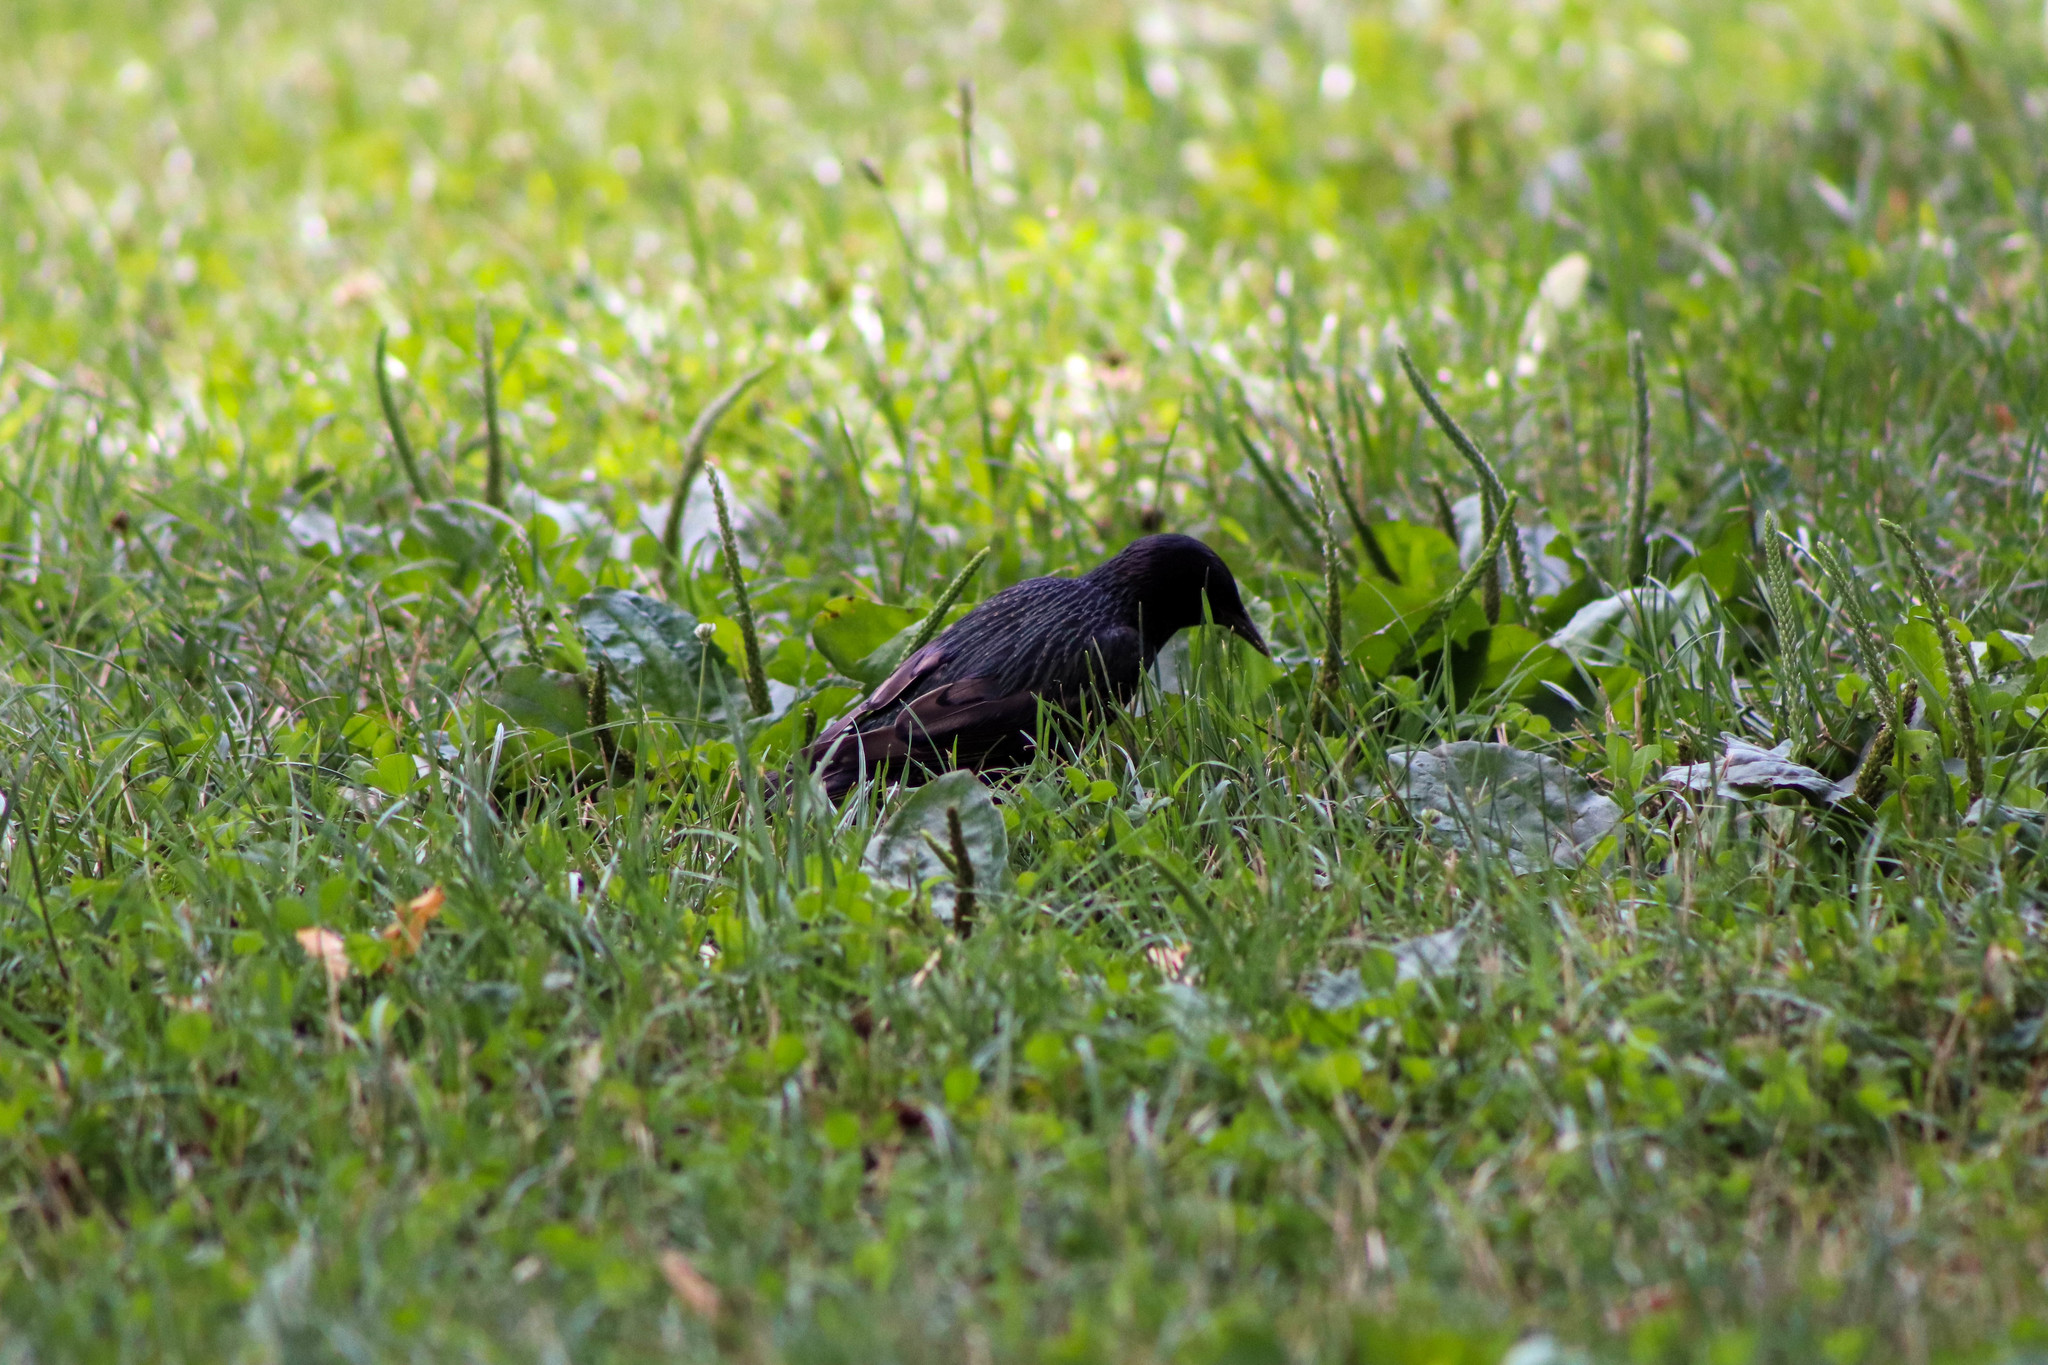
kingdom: Animalia
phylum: Chordata
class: Aves
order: Passeriformes
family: Sturnidae
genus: Sturnus
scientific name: Sturnus vulgaris
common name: Common starling
